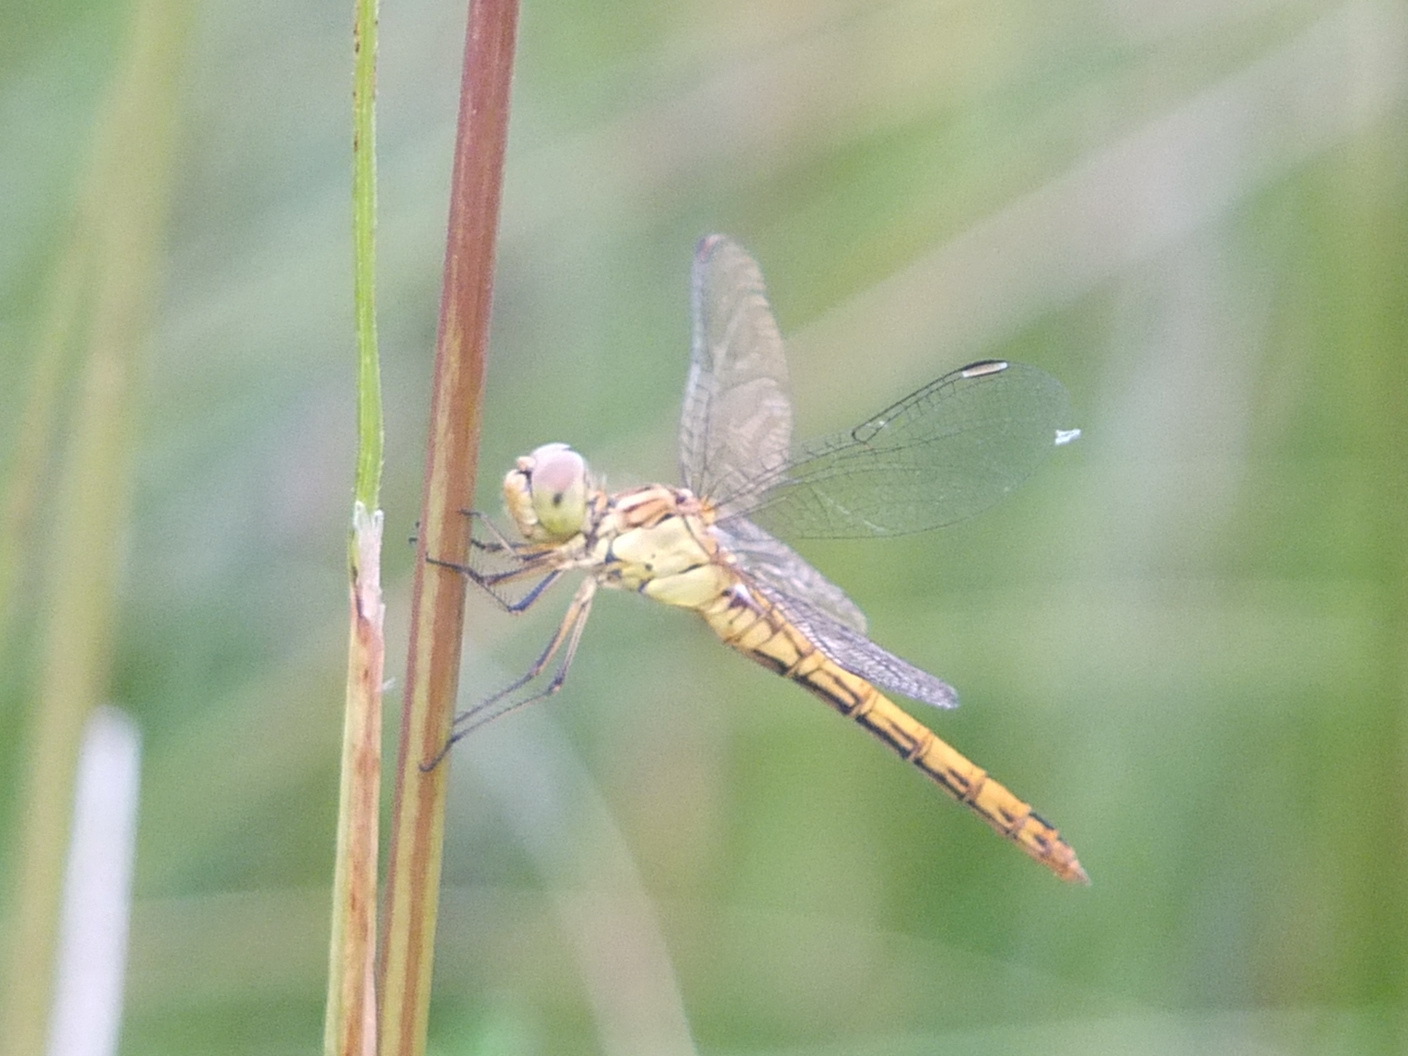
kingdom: Animalia
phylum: Arthropoda
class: Insecta
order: Odonata
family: Libellulidae
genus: Sympetrum
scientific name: Sympetrum meridionale
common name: Southern darter
